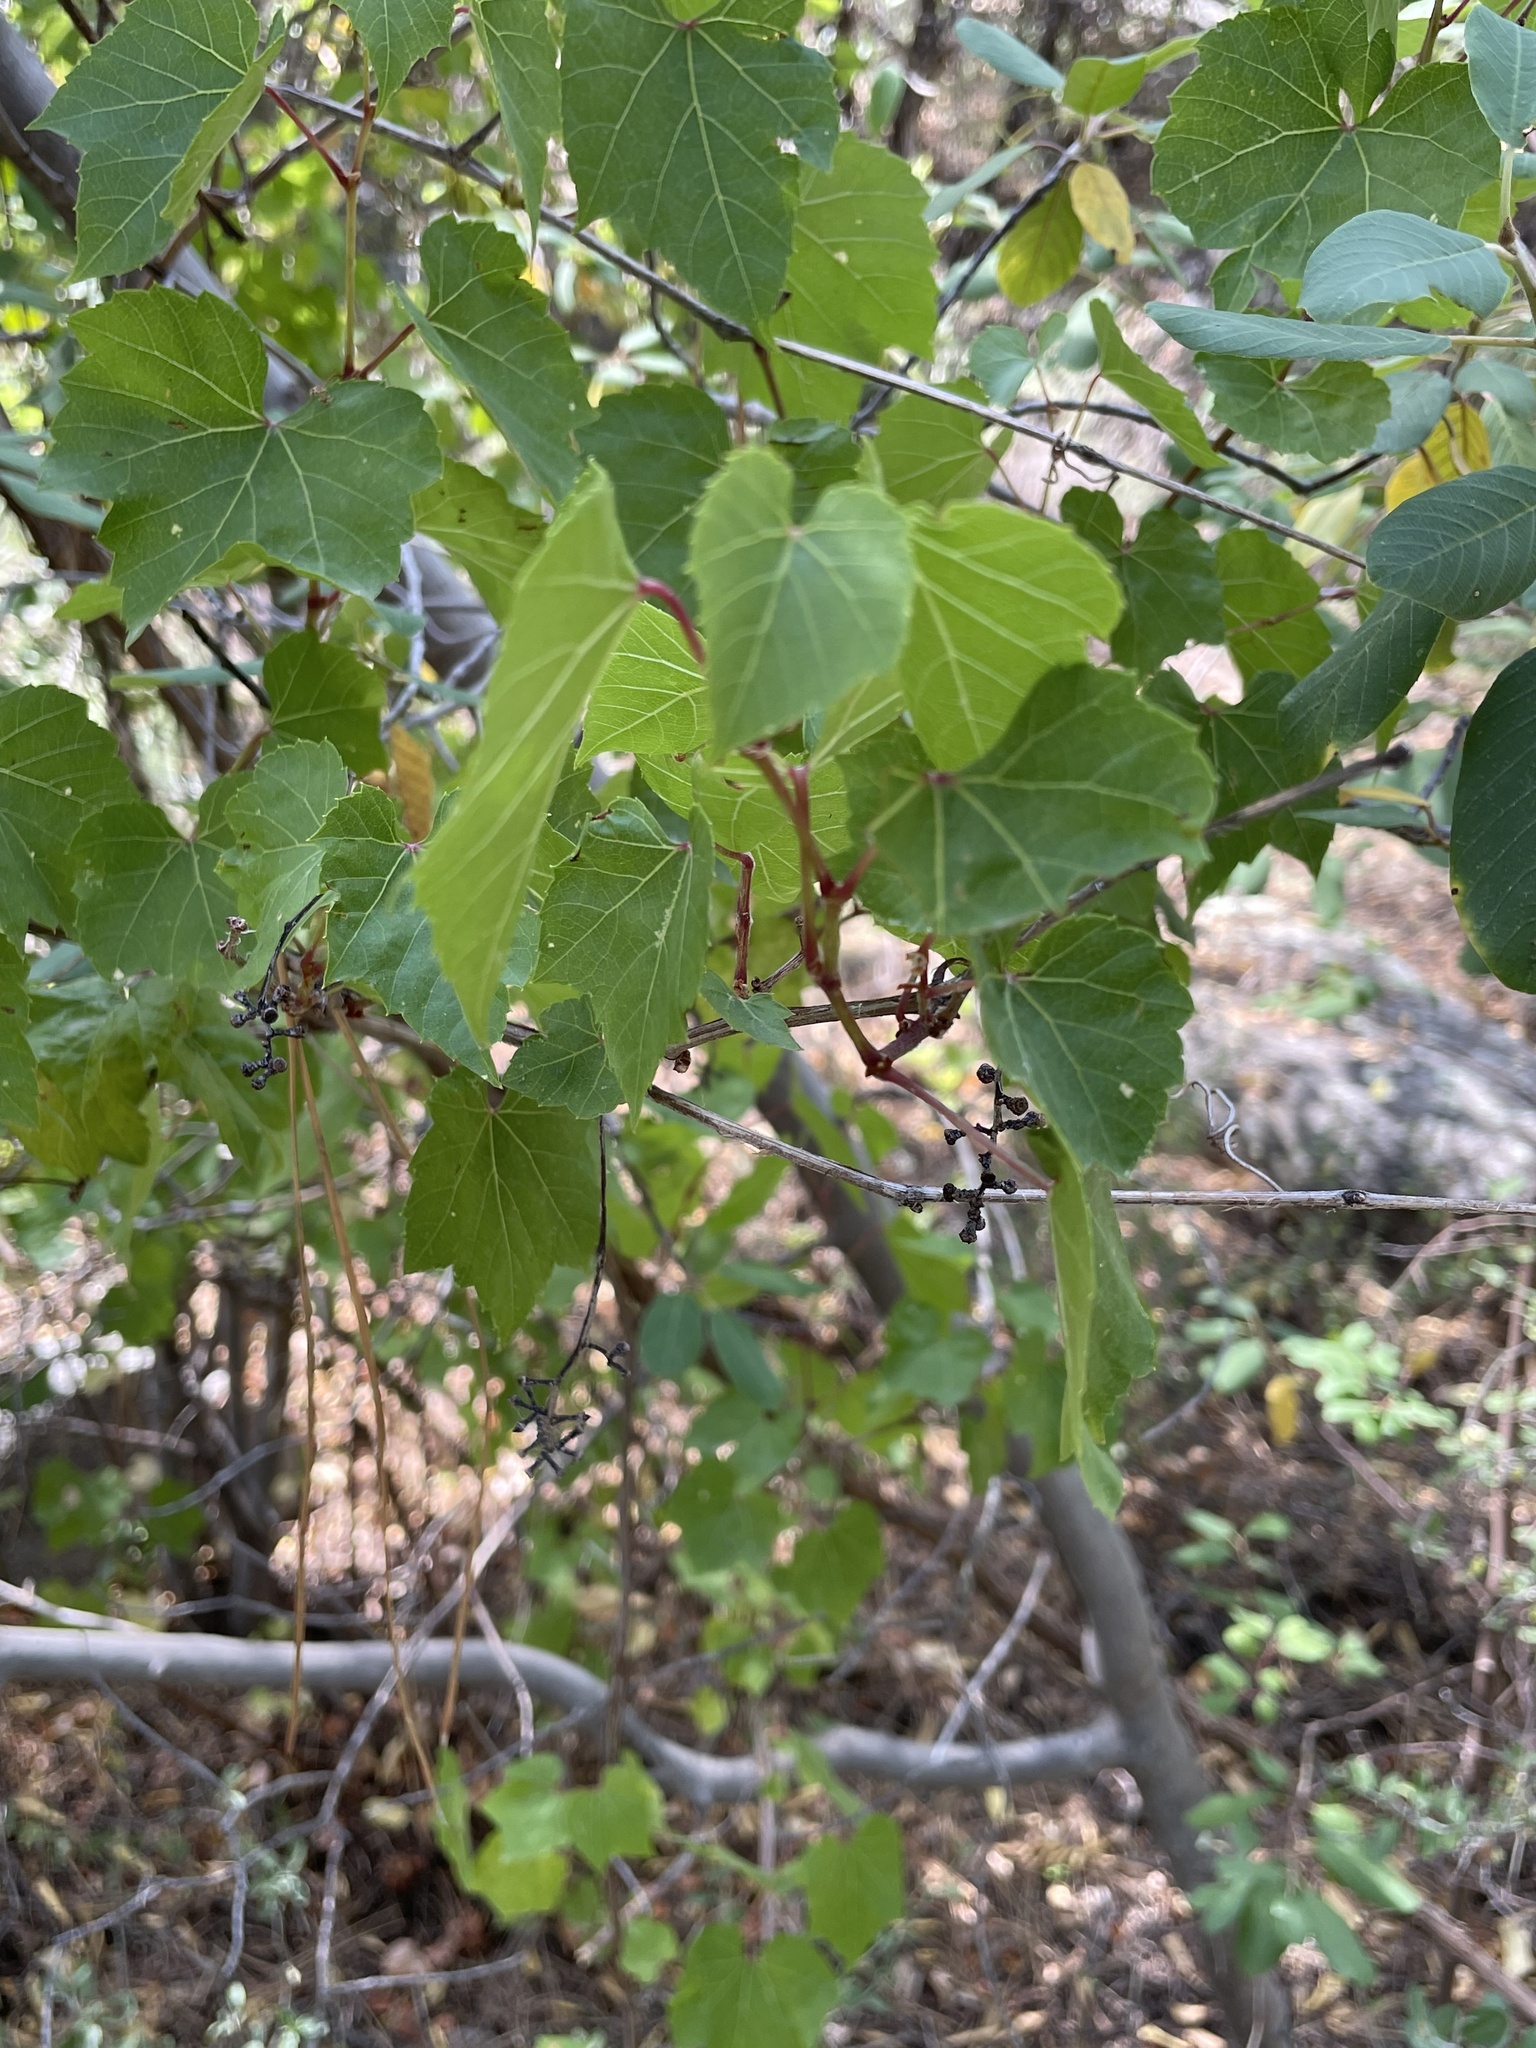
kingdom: Plantae
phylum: Tracheophyta
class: Magnoliopsida
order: Vitales
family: Vitaceae
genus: Vitis
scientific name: Vitis arizonica
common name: Canyon grape
